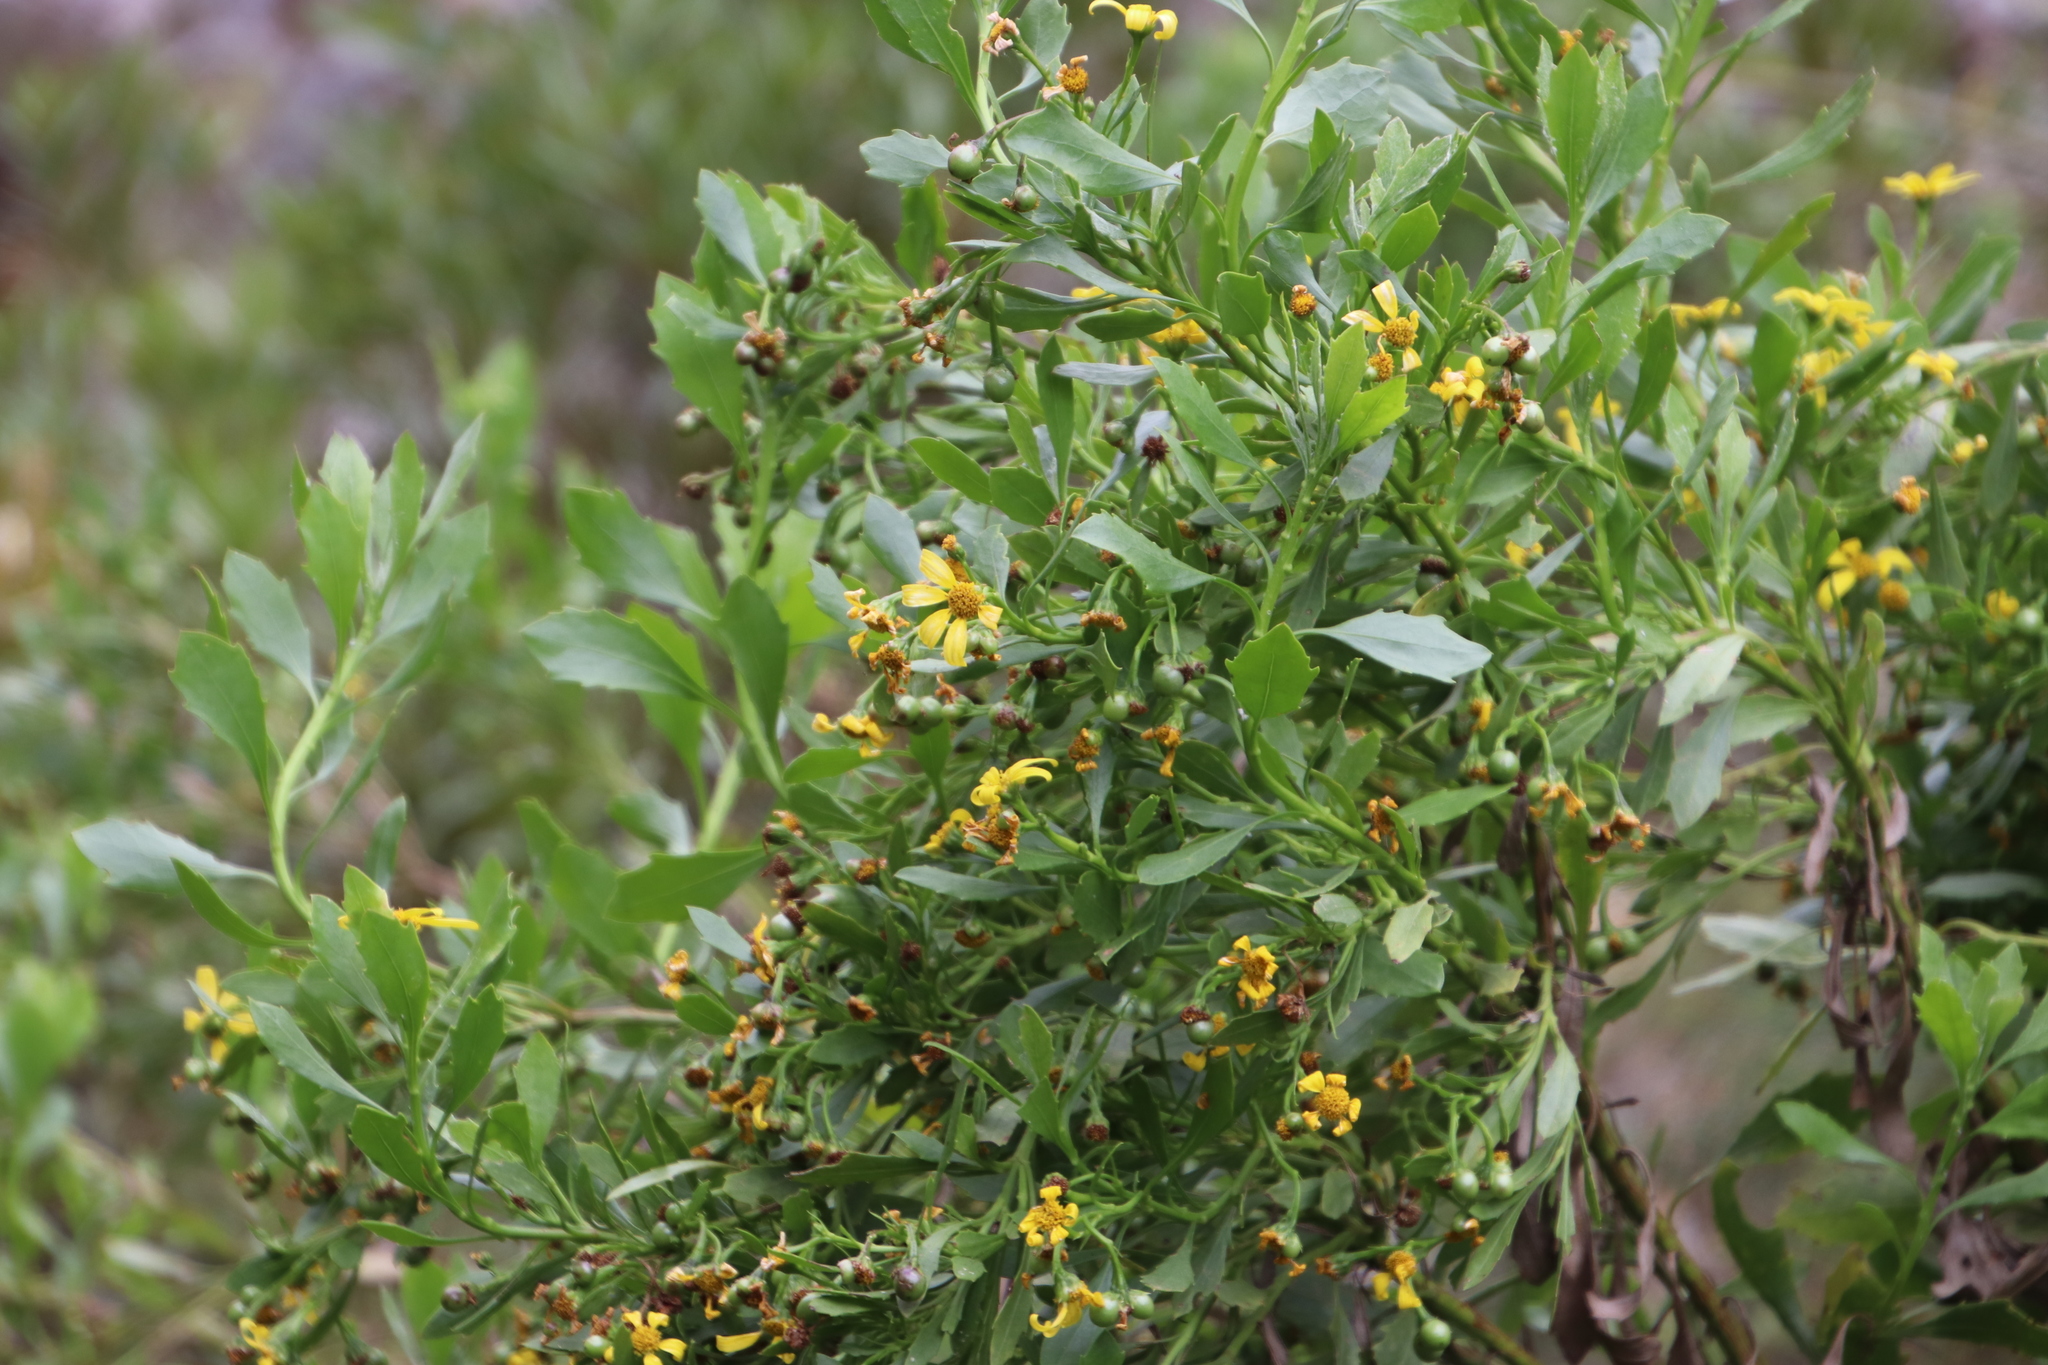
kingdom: Plantae
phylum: Tracheophyta
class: Magnoliopsida
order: Asterales
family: Asteraceae
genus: Osteospermum
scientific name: Osteospermum moniliferum
